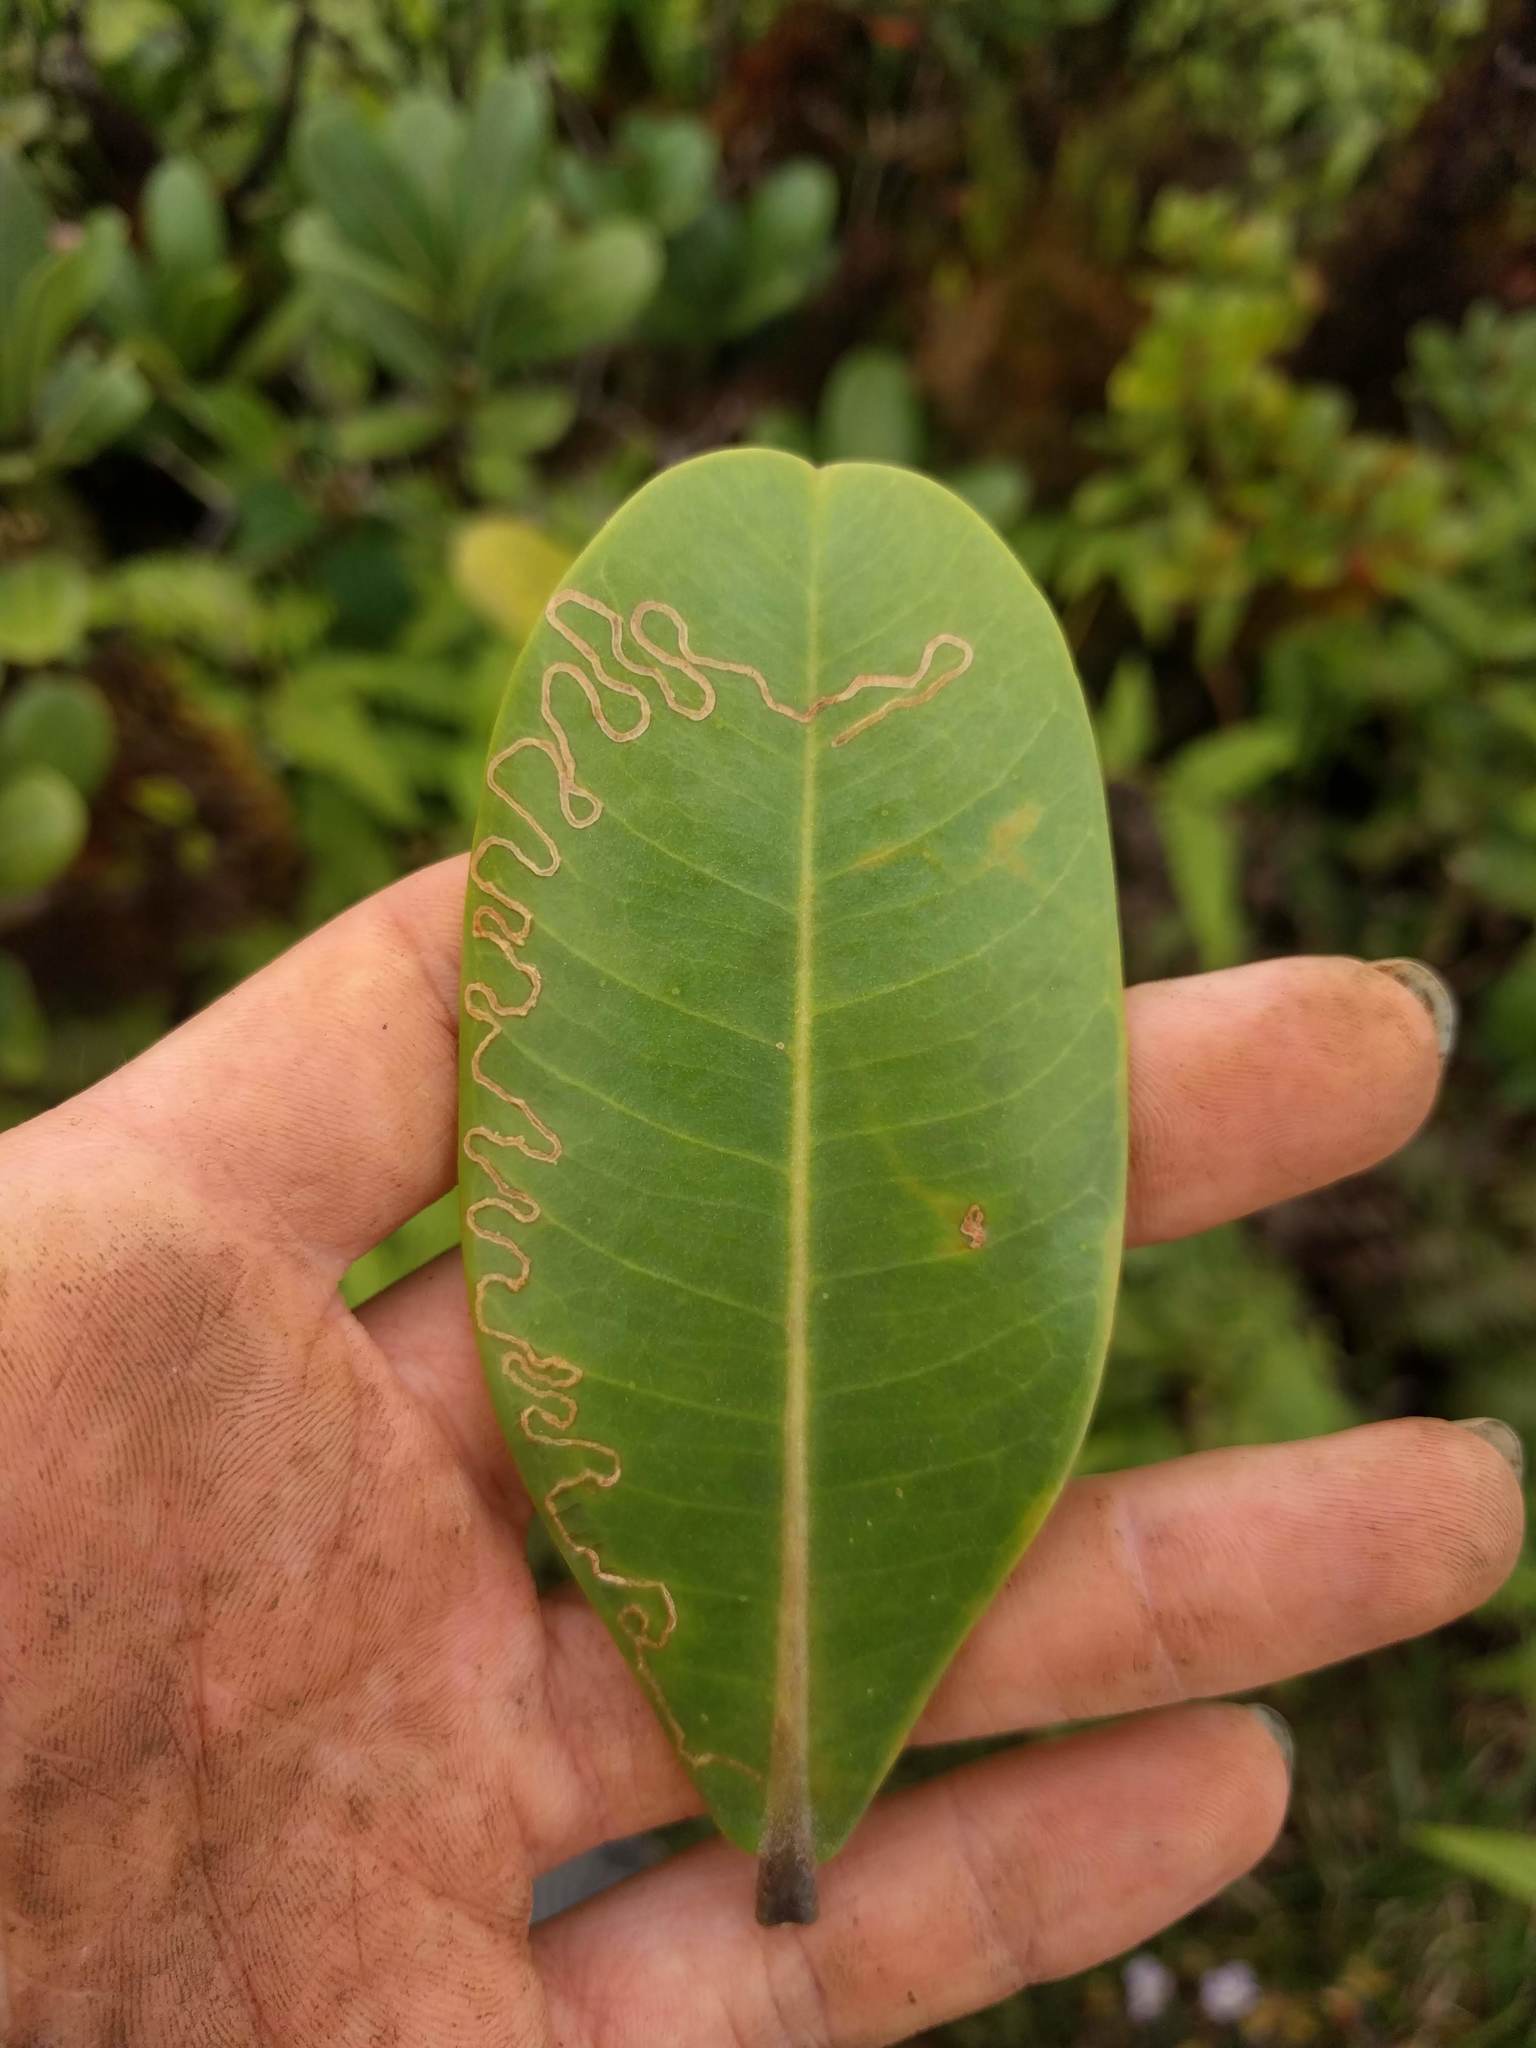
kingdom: Animalia
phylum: Arthropoda
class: Insecta
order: Lepidoptera
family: Opostegidae
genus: Paralopostega
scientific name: Paralopostega serpentina
